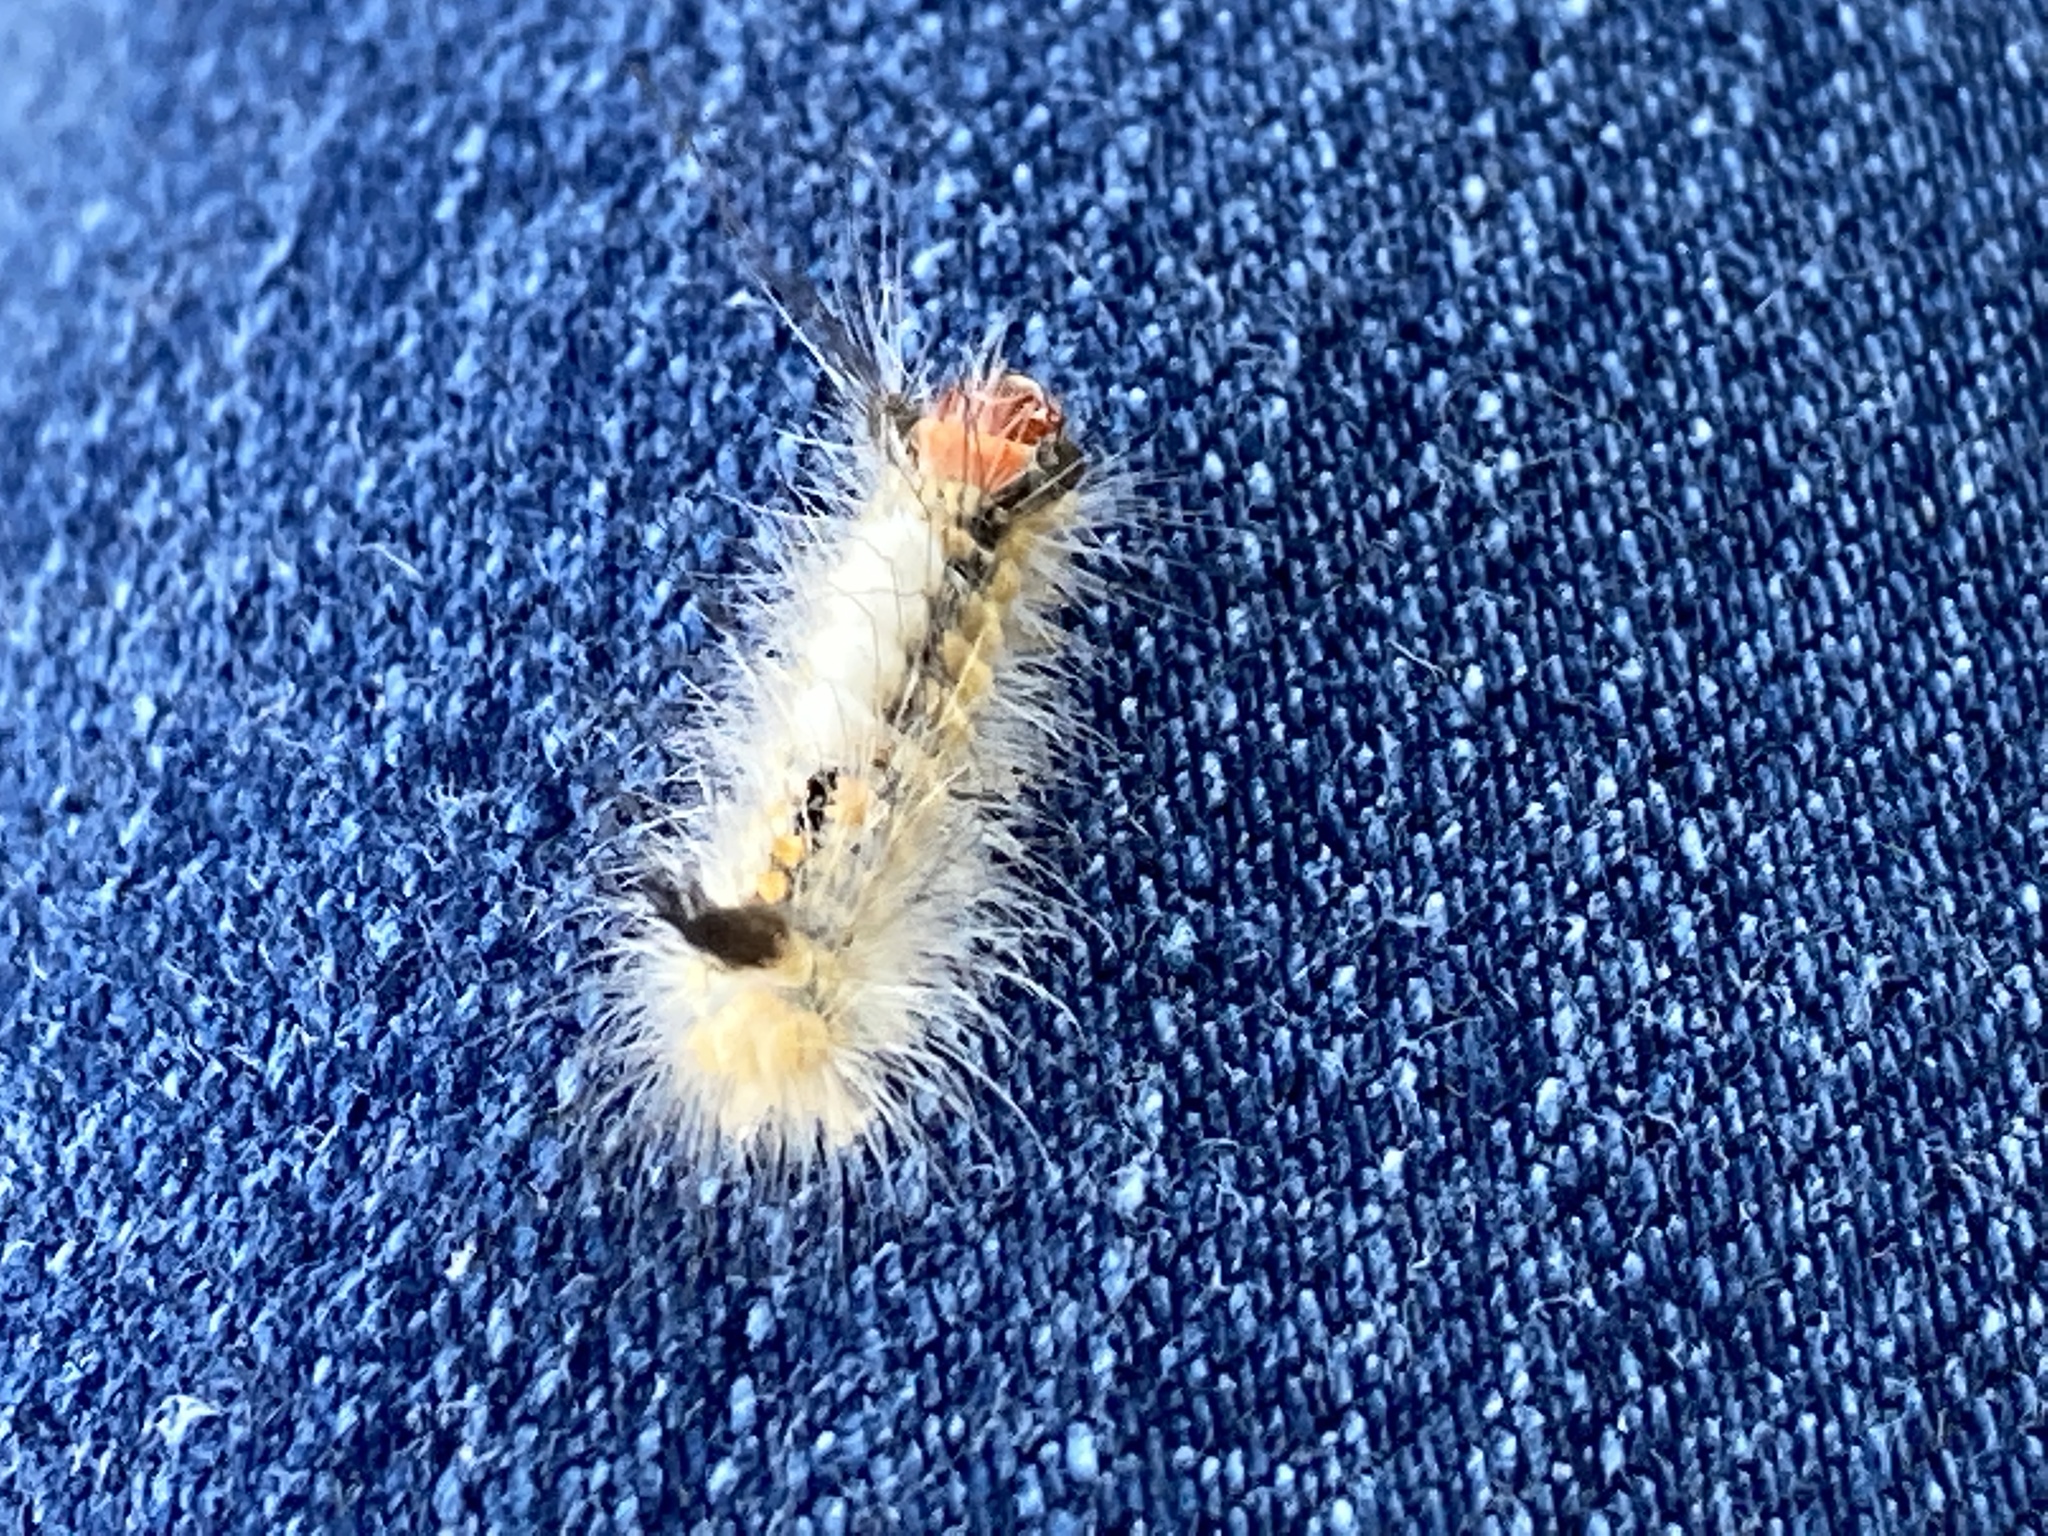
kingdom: Animalia
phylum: Arthropoda
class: Insecta
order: Lepidoptera
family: Erebidae
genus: Orgyia
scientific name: Orgyia detrita
